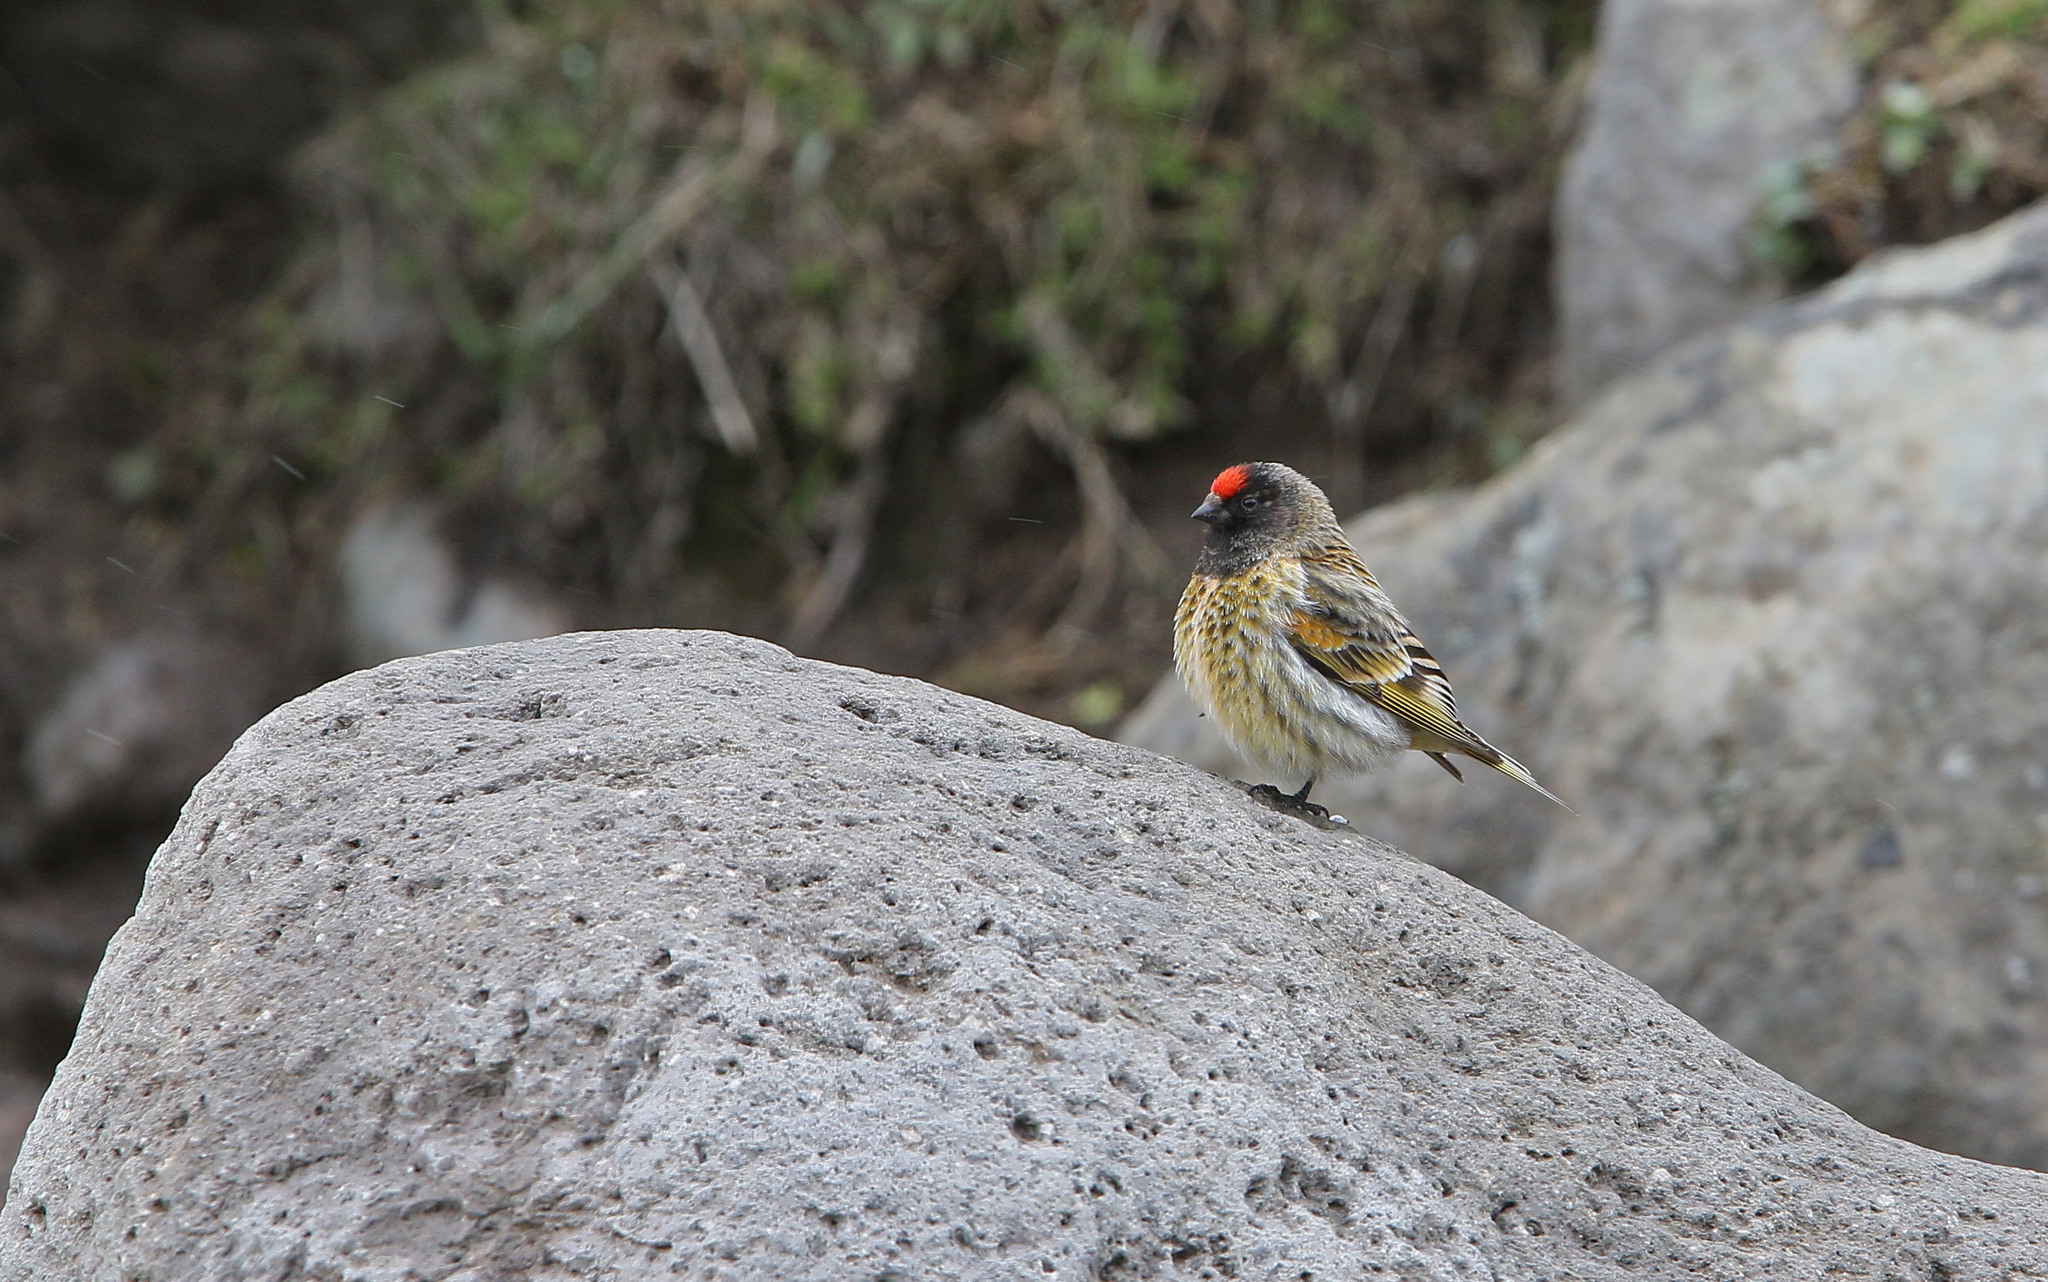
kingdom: Animalia
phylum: Chordata
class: Aves
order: Passeriformes
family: Fringillidae
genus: Serinus
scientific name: Serinus pusillus
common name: Red-fronted serin
